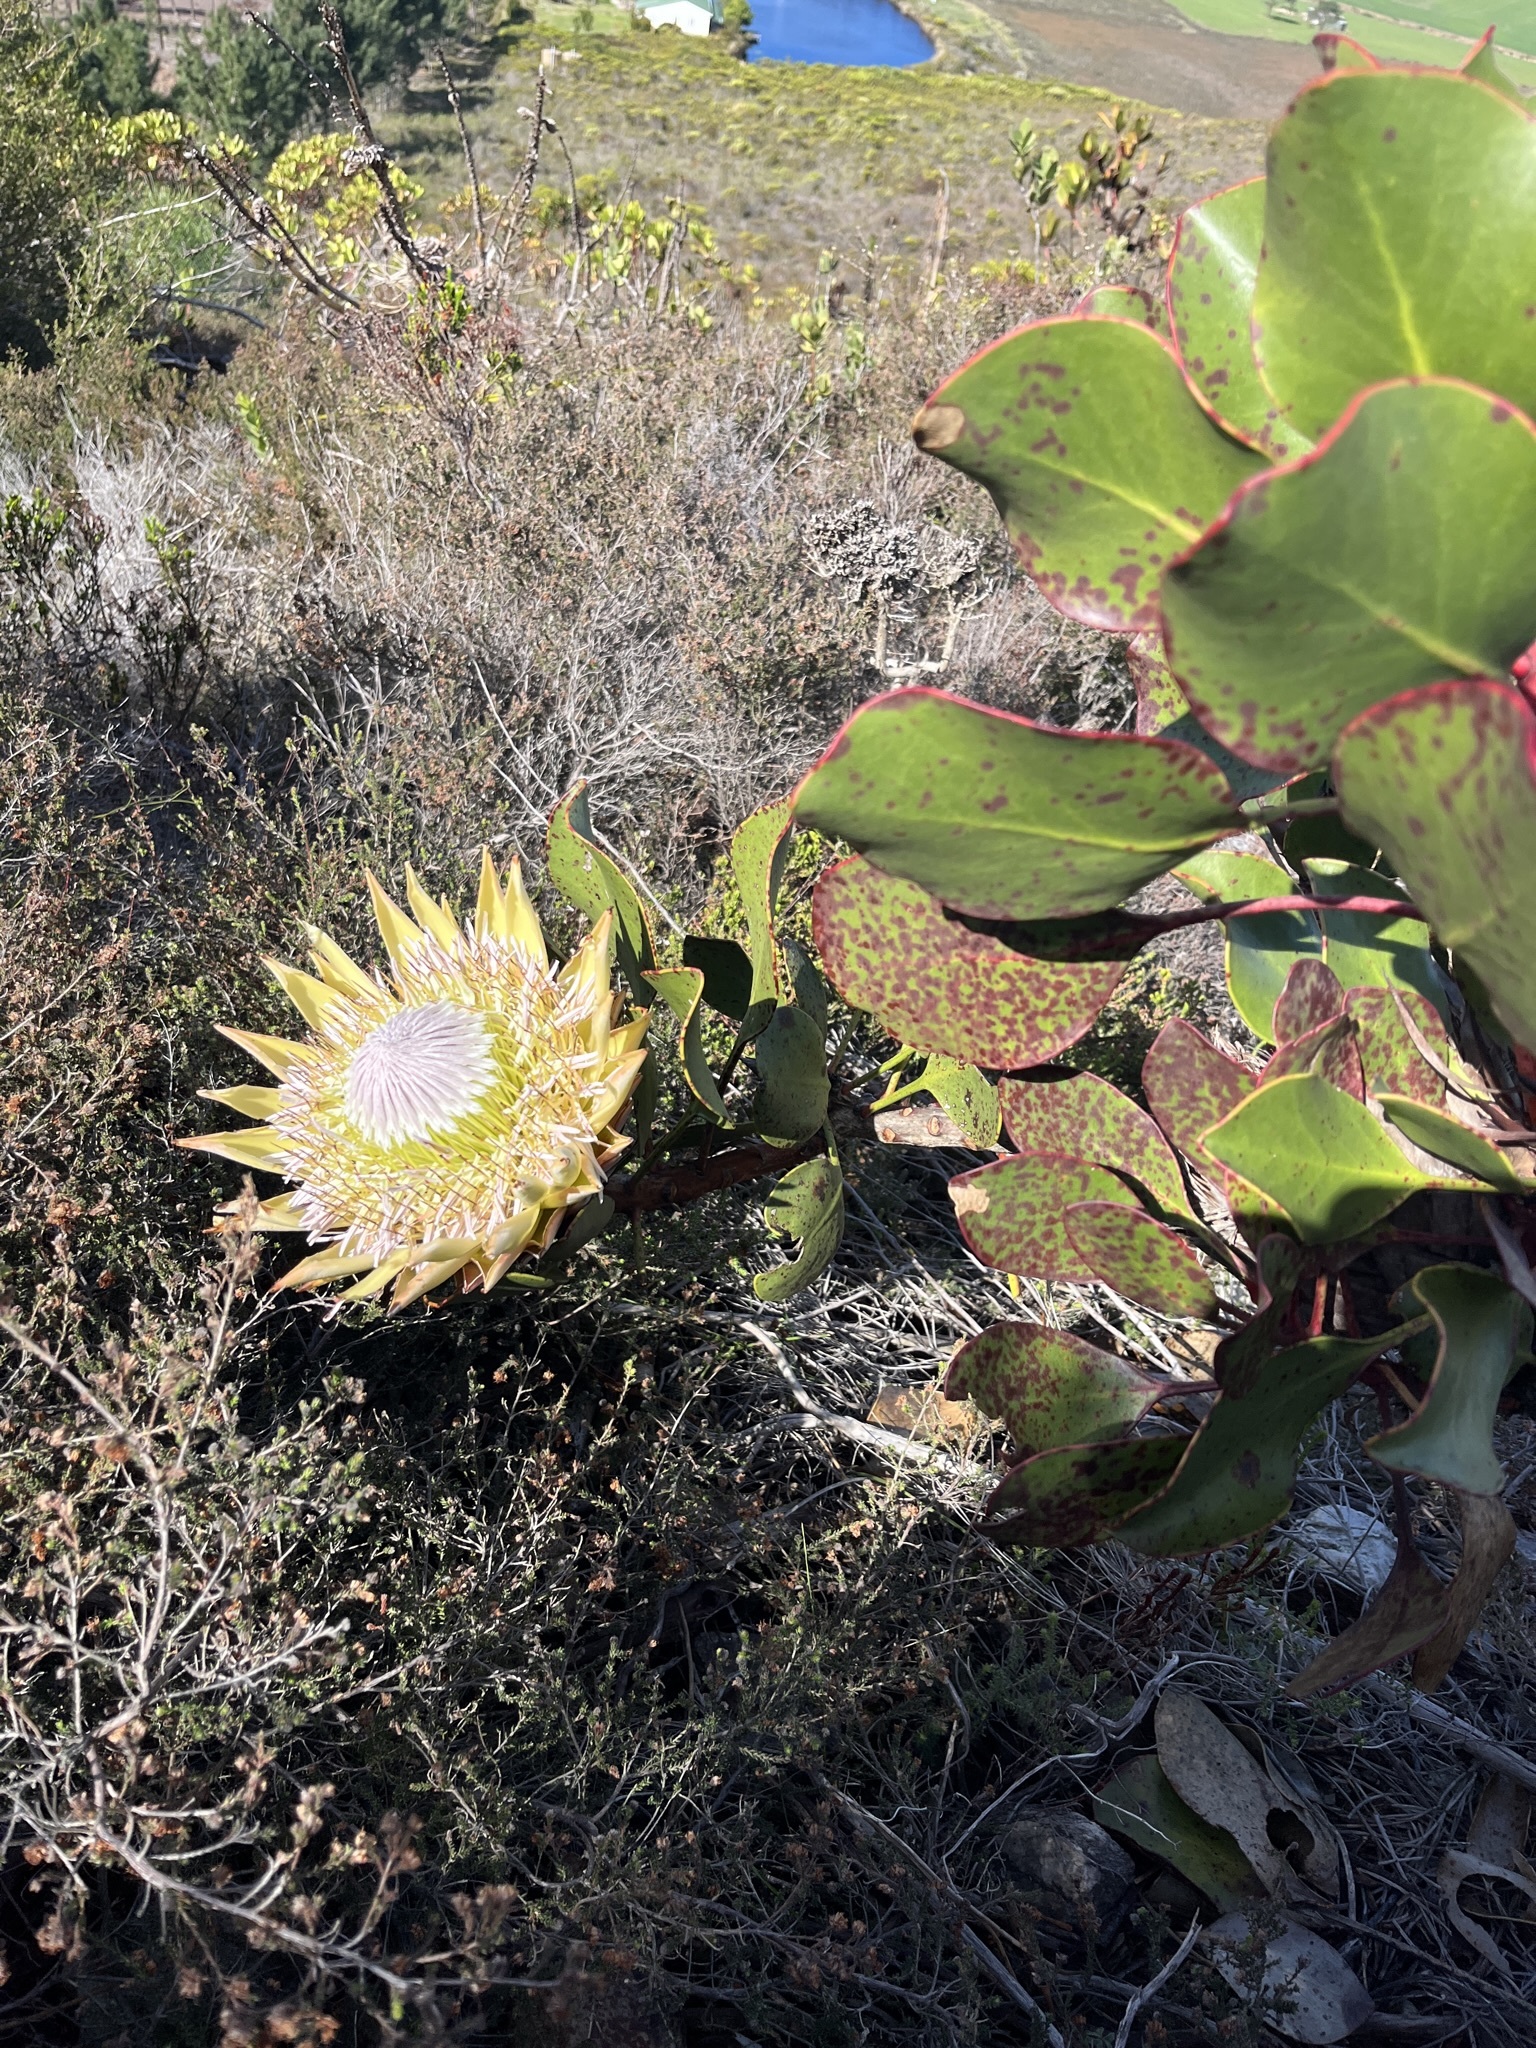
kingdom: Plantae
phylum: Tracheophyta
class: Magnoliopsida
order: Proteales
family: Proteaceae
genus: Protea
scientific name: Protea cynaroides
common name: King protea
